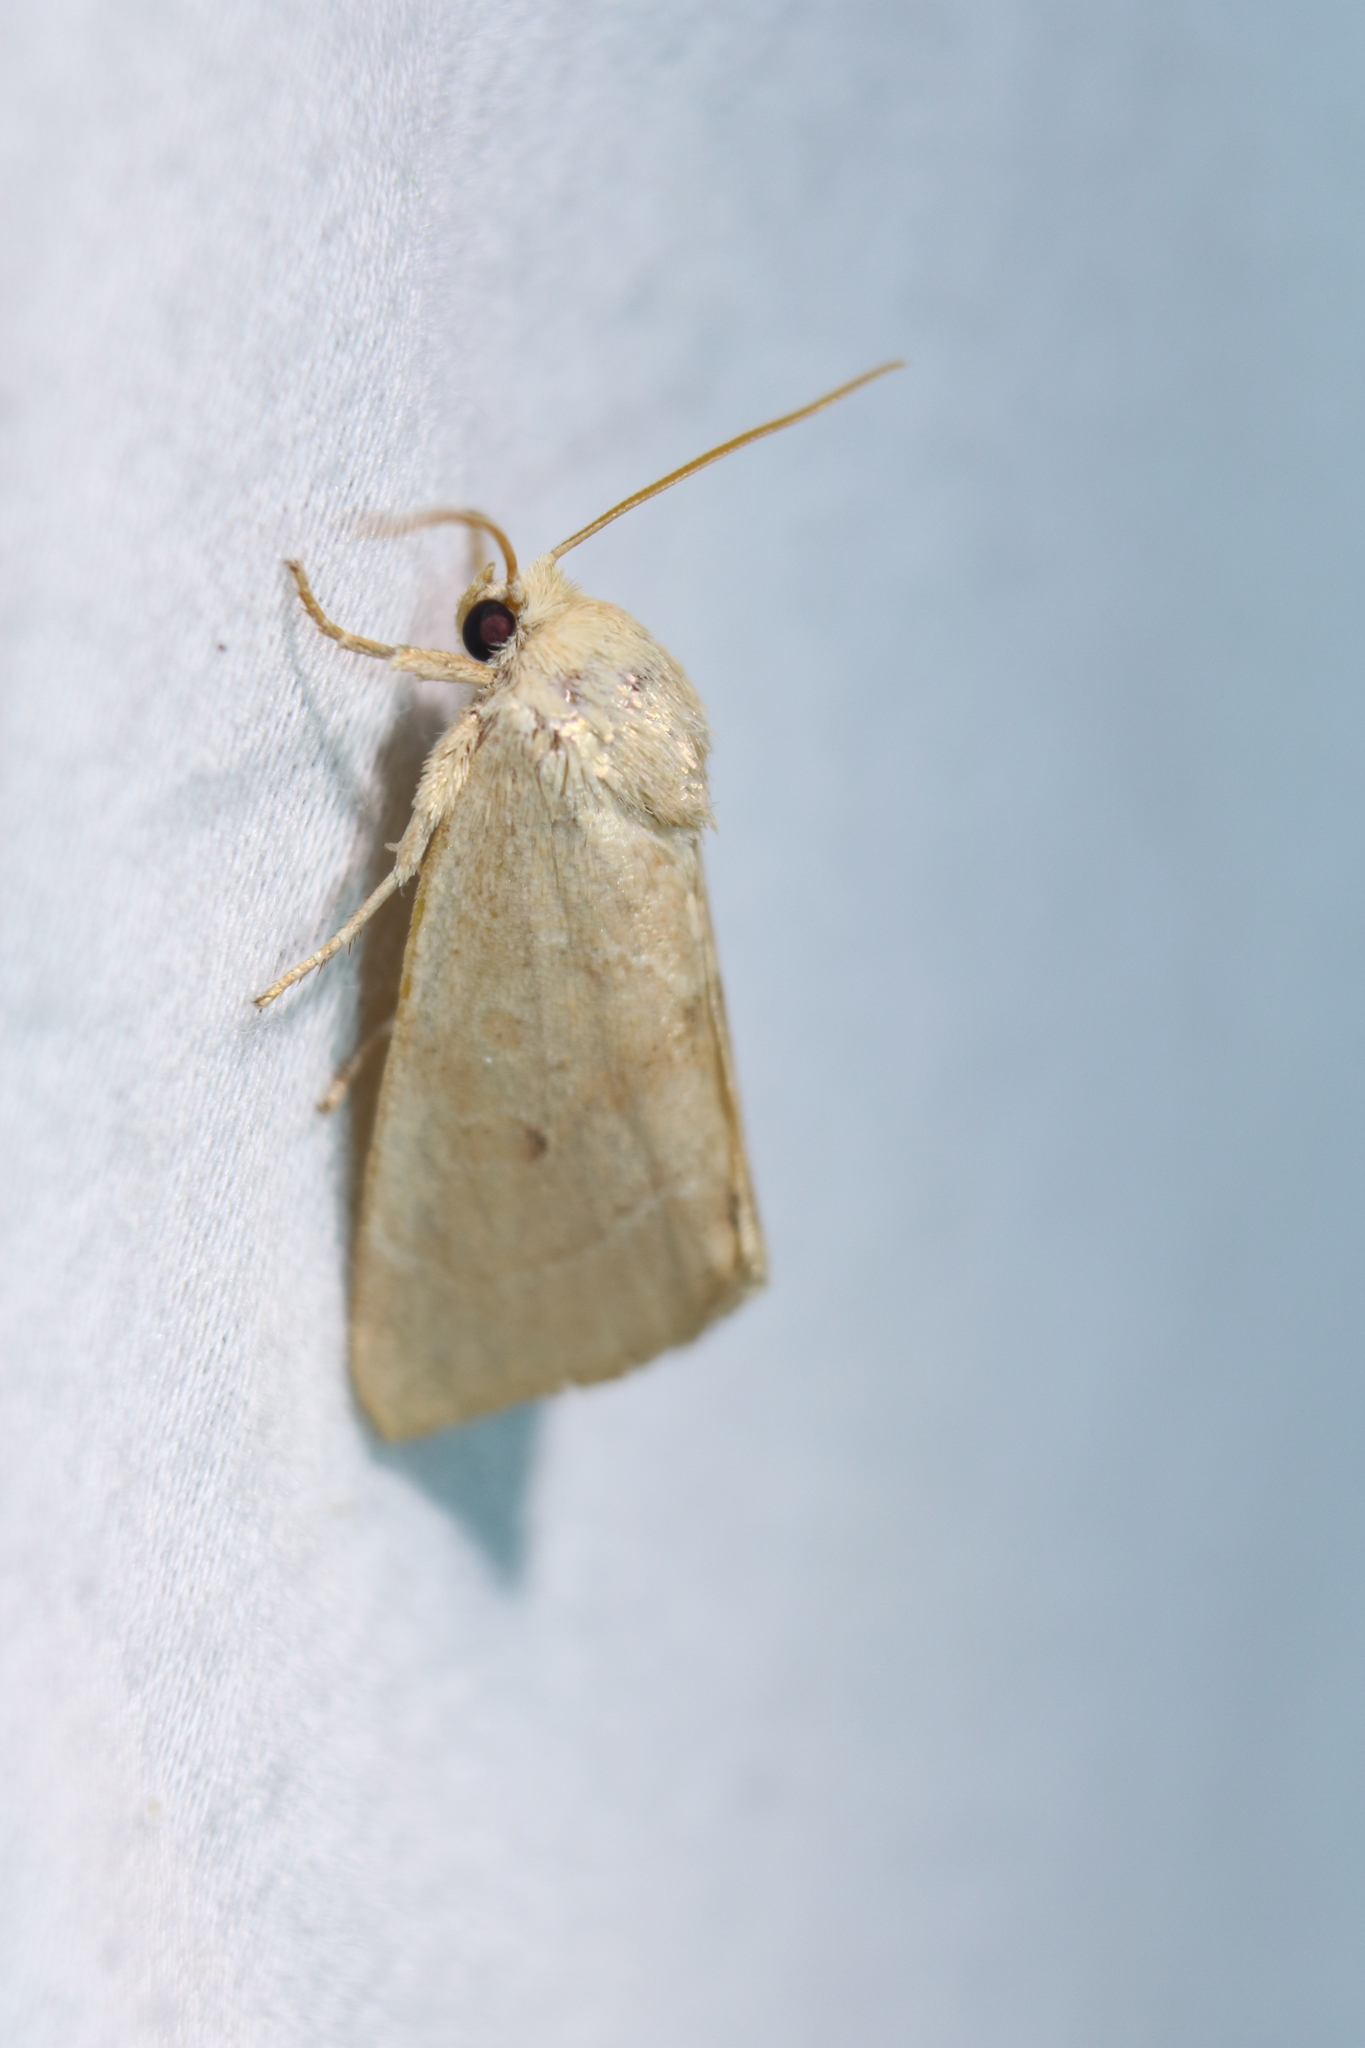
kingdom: Animalia
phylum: Arthropoda
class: Insecta
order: Lepidoptera
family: Noctuidae
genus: Cosmia
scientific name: Cosmia calami
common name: American dun-bar moth
